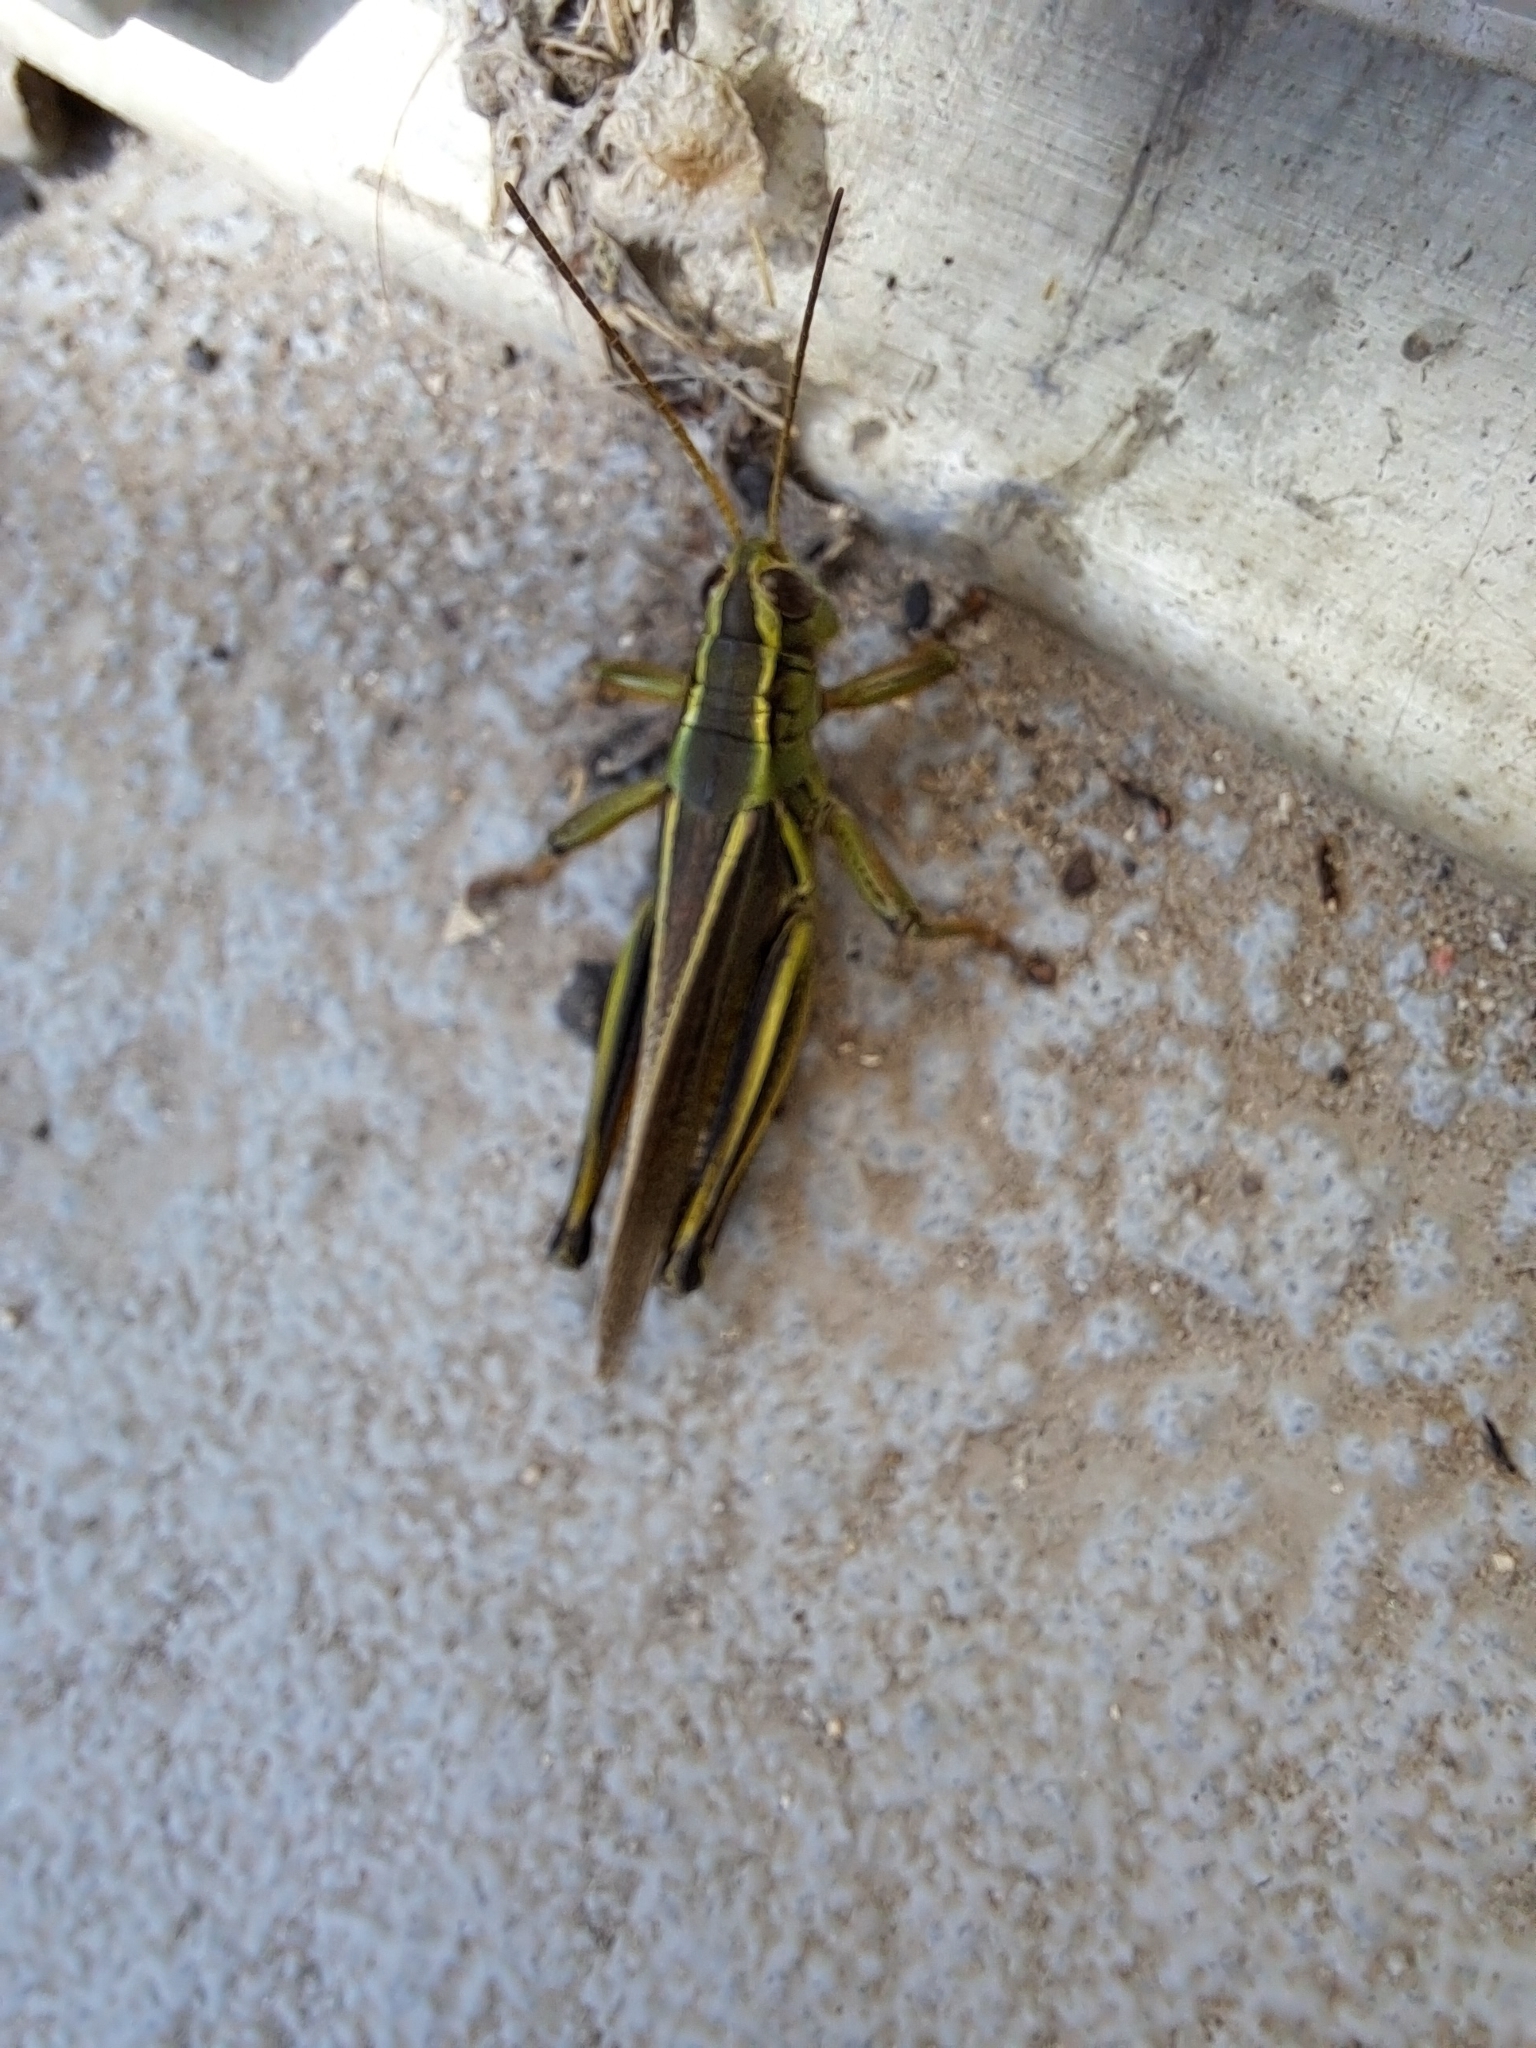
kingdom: Animalia
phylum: Arthropoda
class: Insecta
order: Orthoptera
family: Acrididae
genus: Melanoplus
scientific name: Melanoplus bivittatus
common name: Two-striped grasshopper
